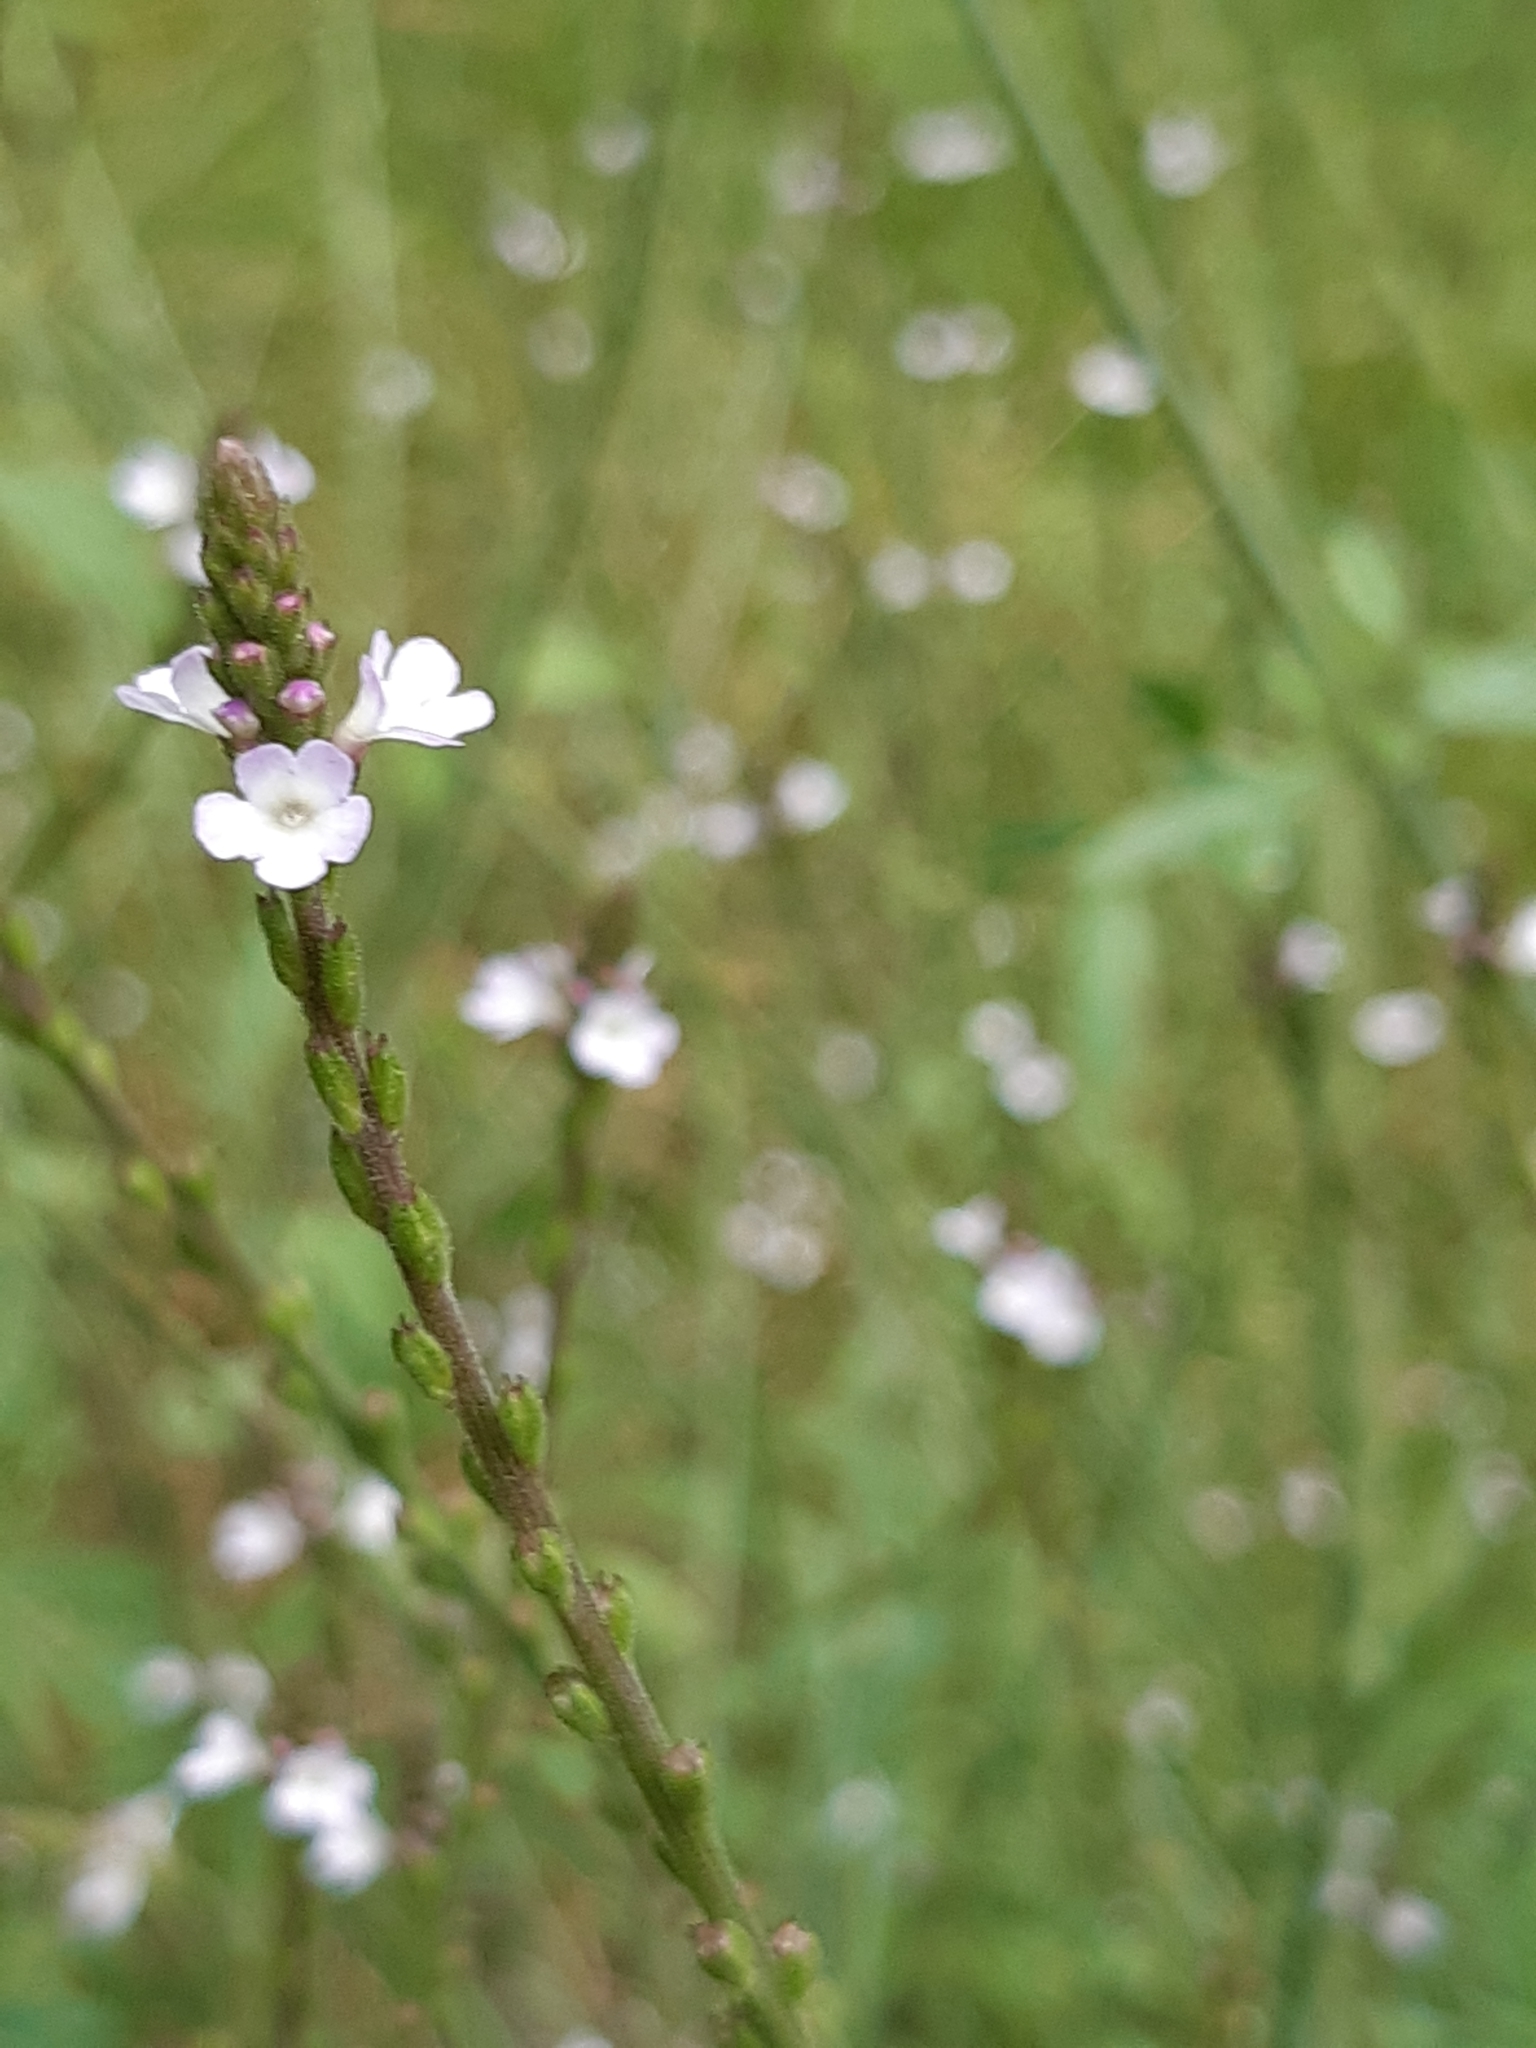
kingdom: Plantae
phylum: Tracheophyta
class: Magnoliopsida
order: Lamiales
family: Verbenaceae
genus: Verbena
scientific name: Verbena officinalis
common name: Vervain
